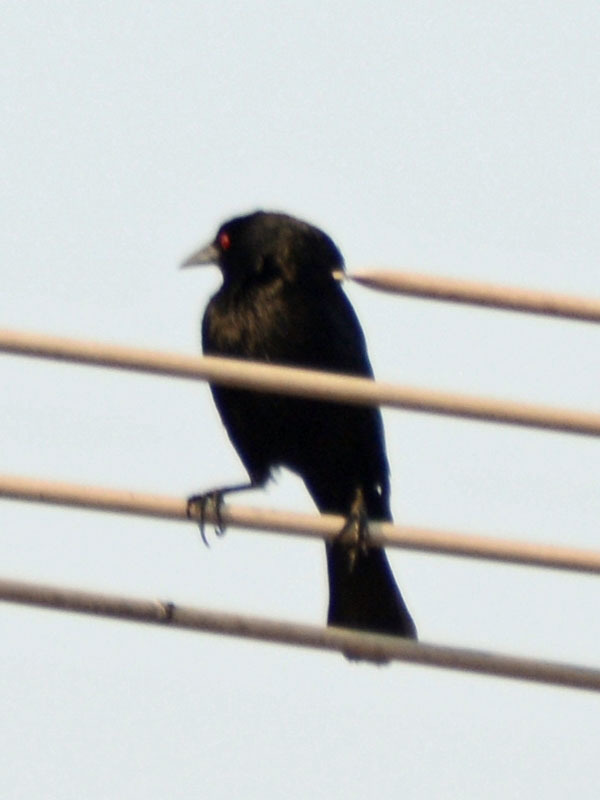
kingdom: Animalia
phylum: Chordata
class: Aves
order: Passeriformes
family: Icteridae
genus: Molothrus
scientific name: Molothrus aeneus
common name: Bronzed cowbird
